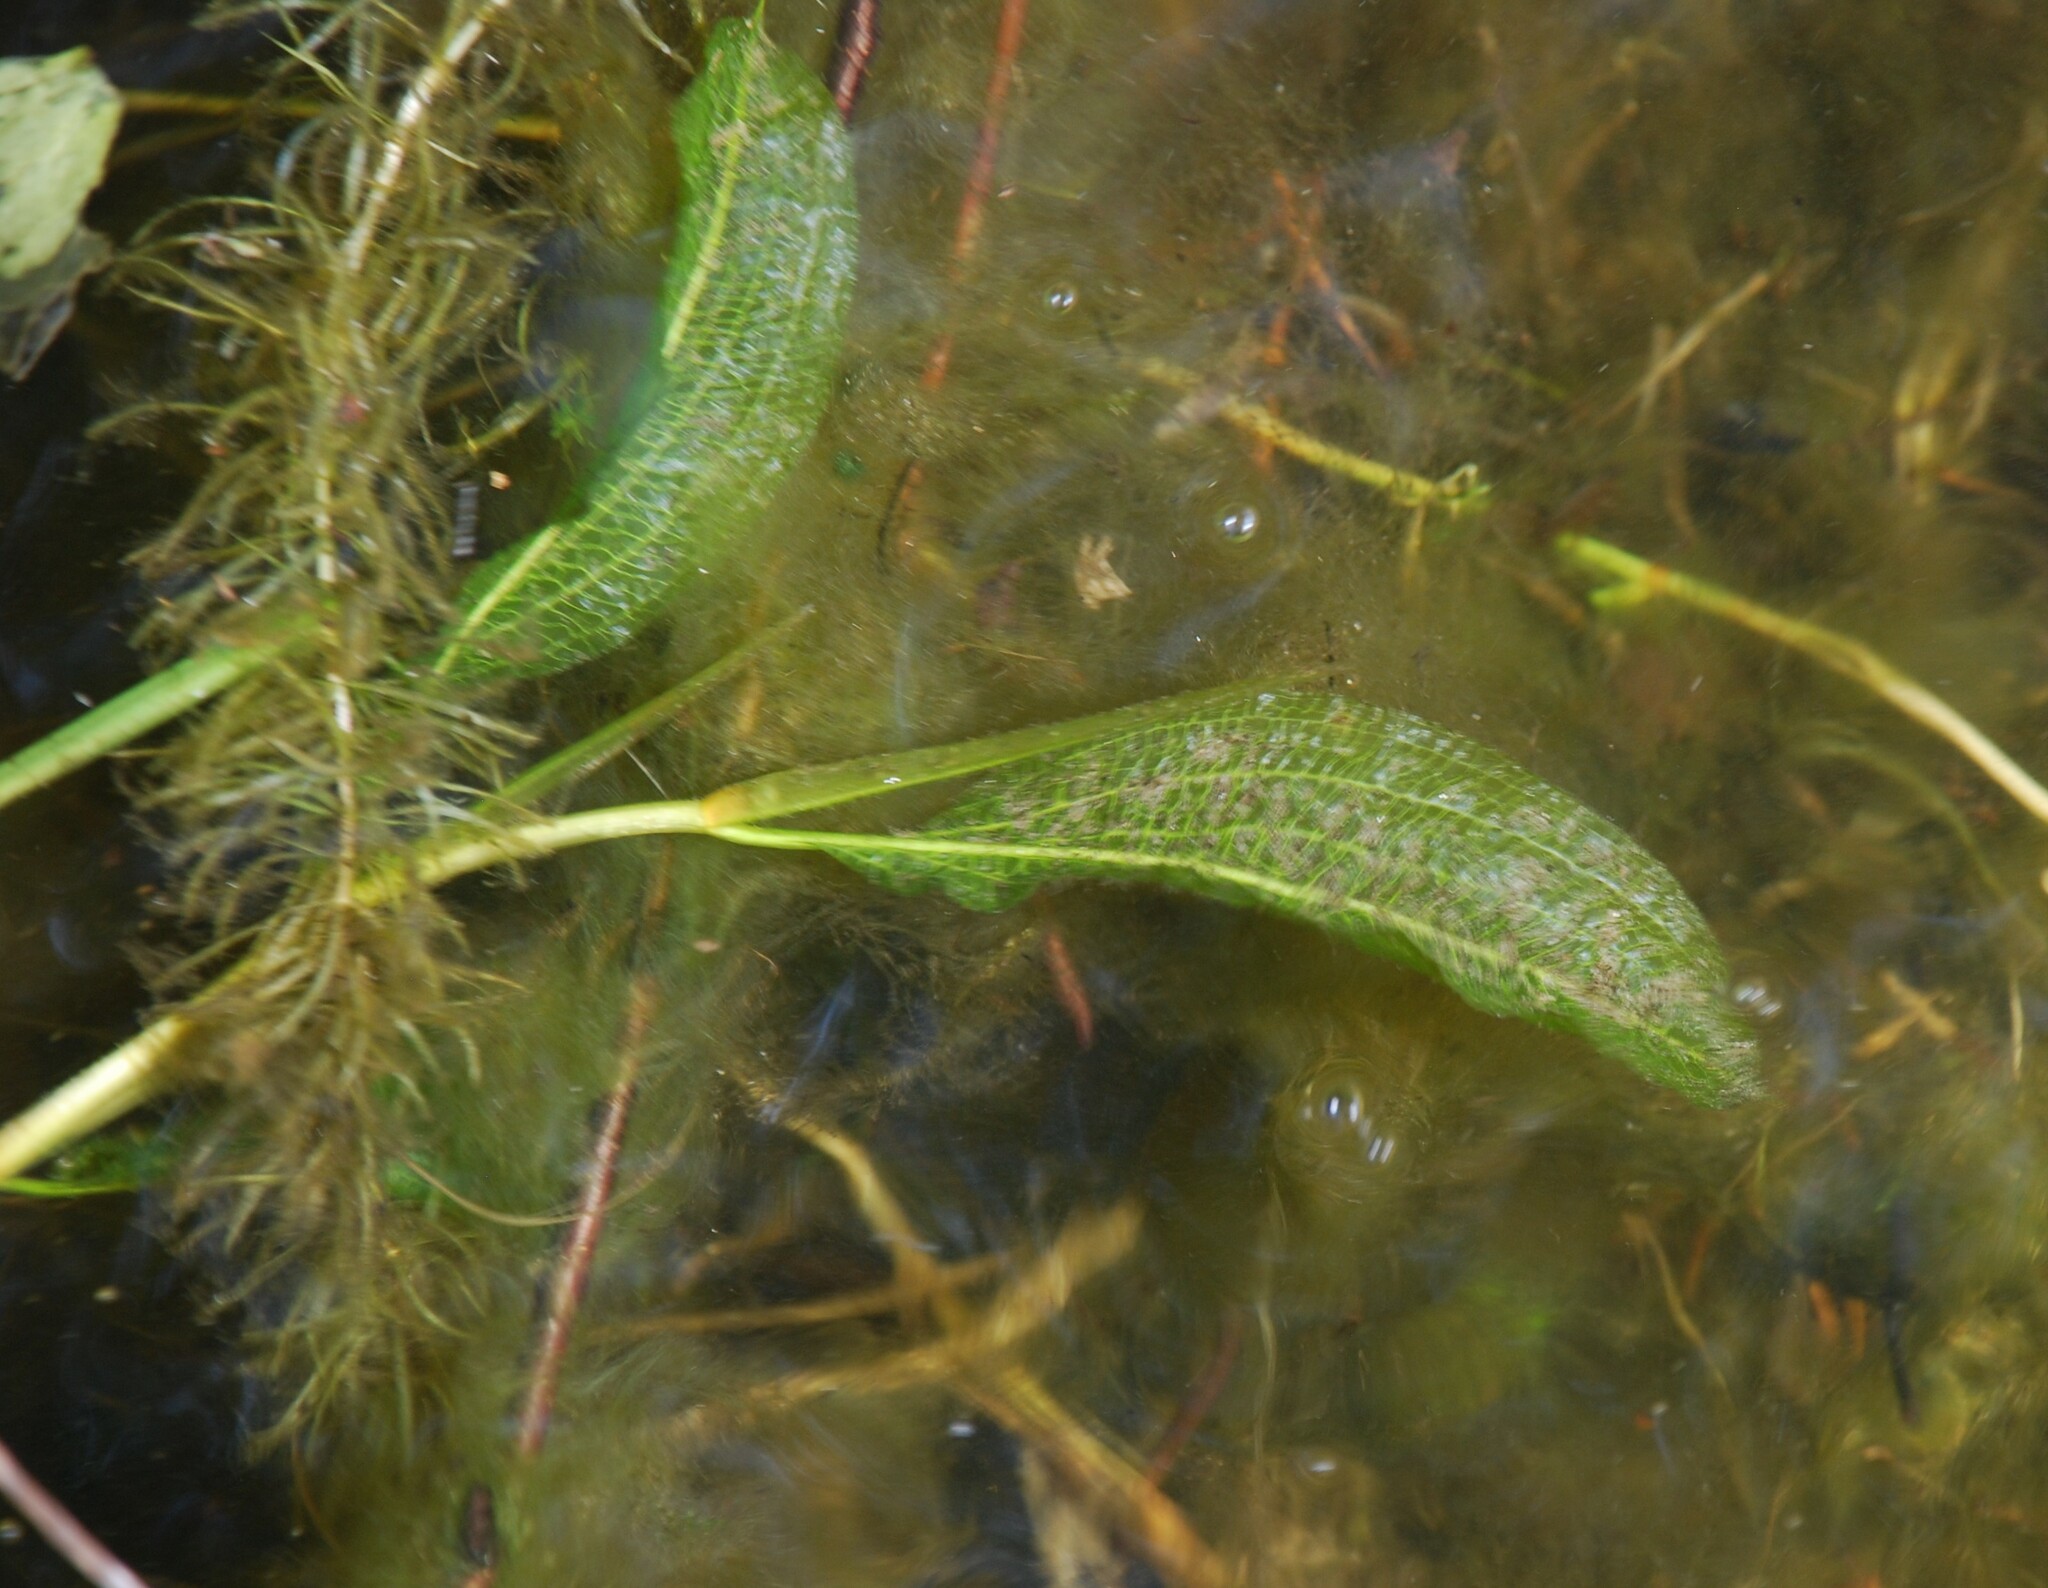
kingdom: Plantae
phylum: Tracheophyta
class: Liliopsida
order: Alismatales
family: Potamogetonaceae
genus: Potamogeton
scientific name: Potamogeton lucens
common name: Shining pondweed
